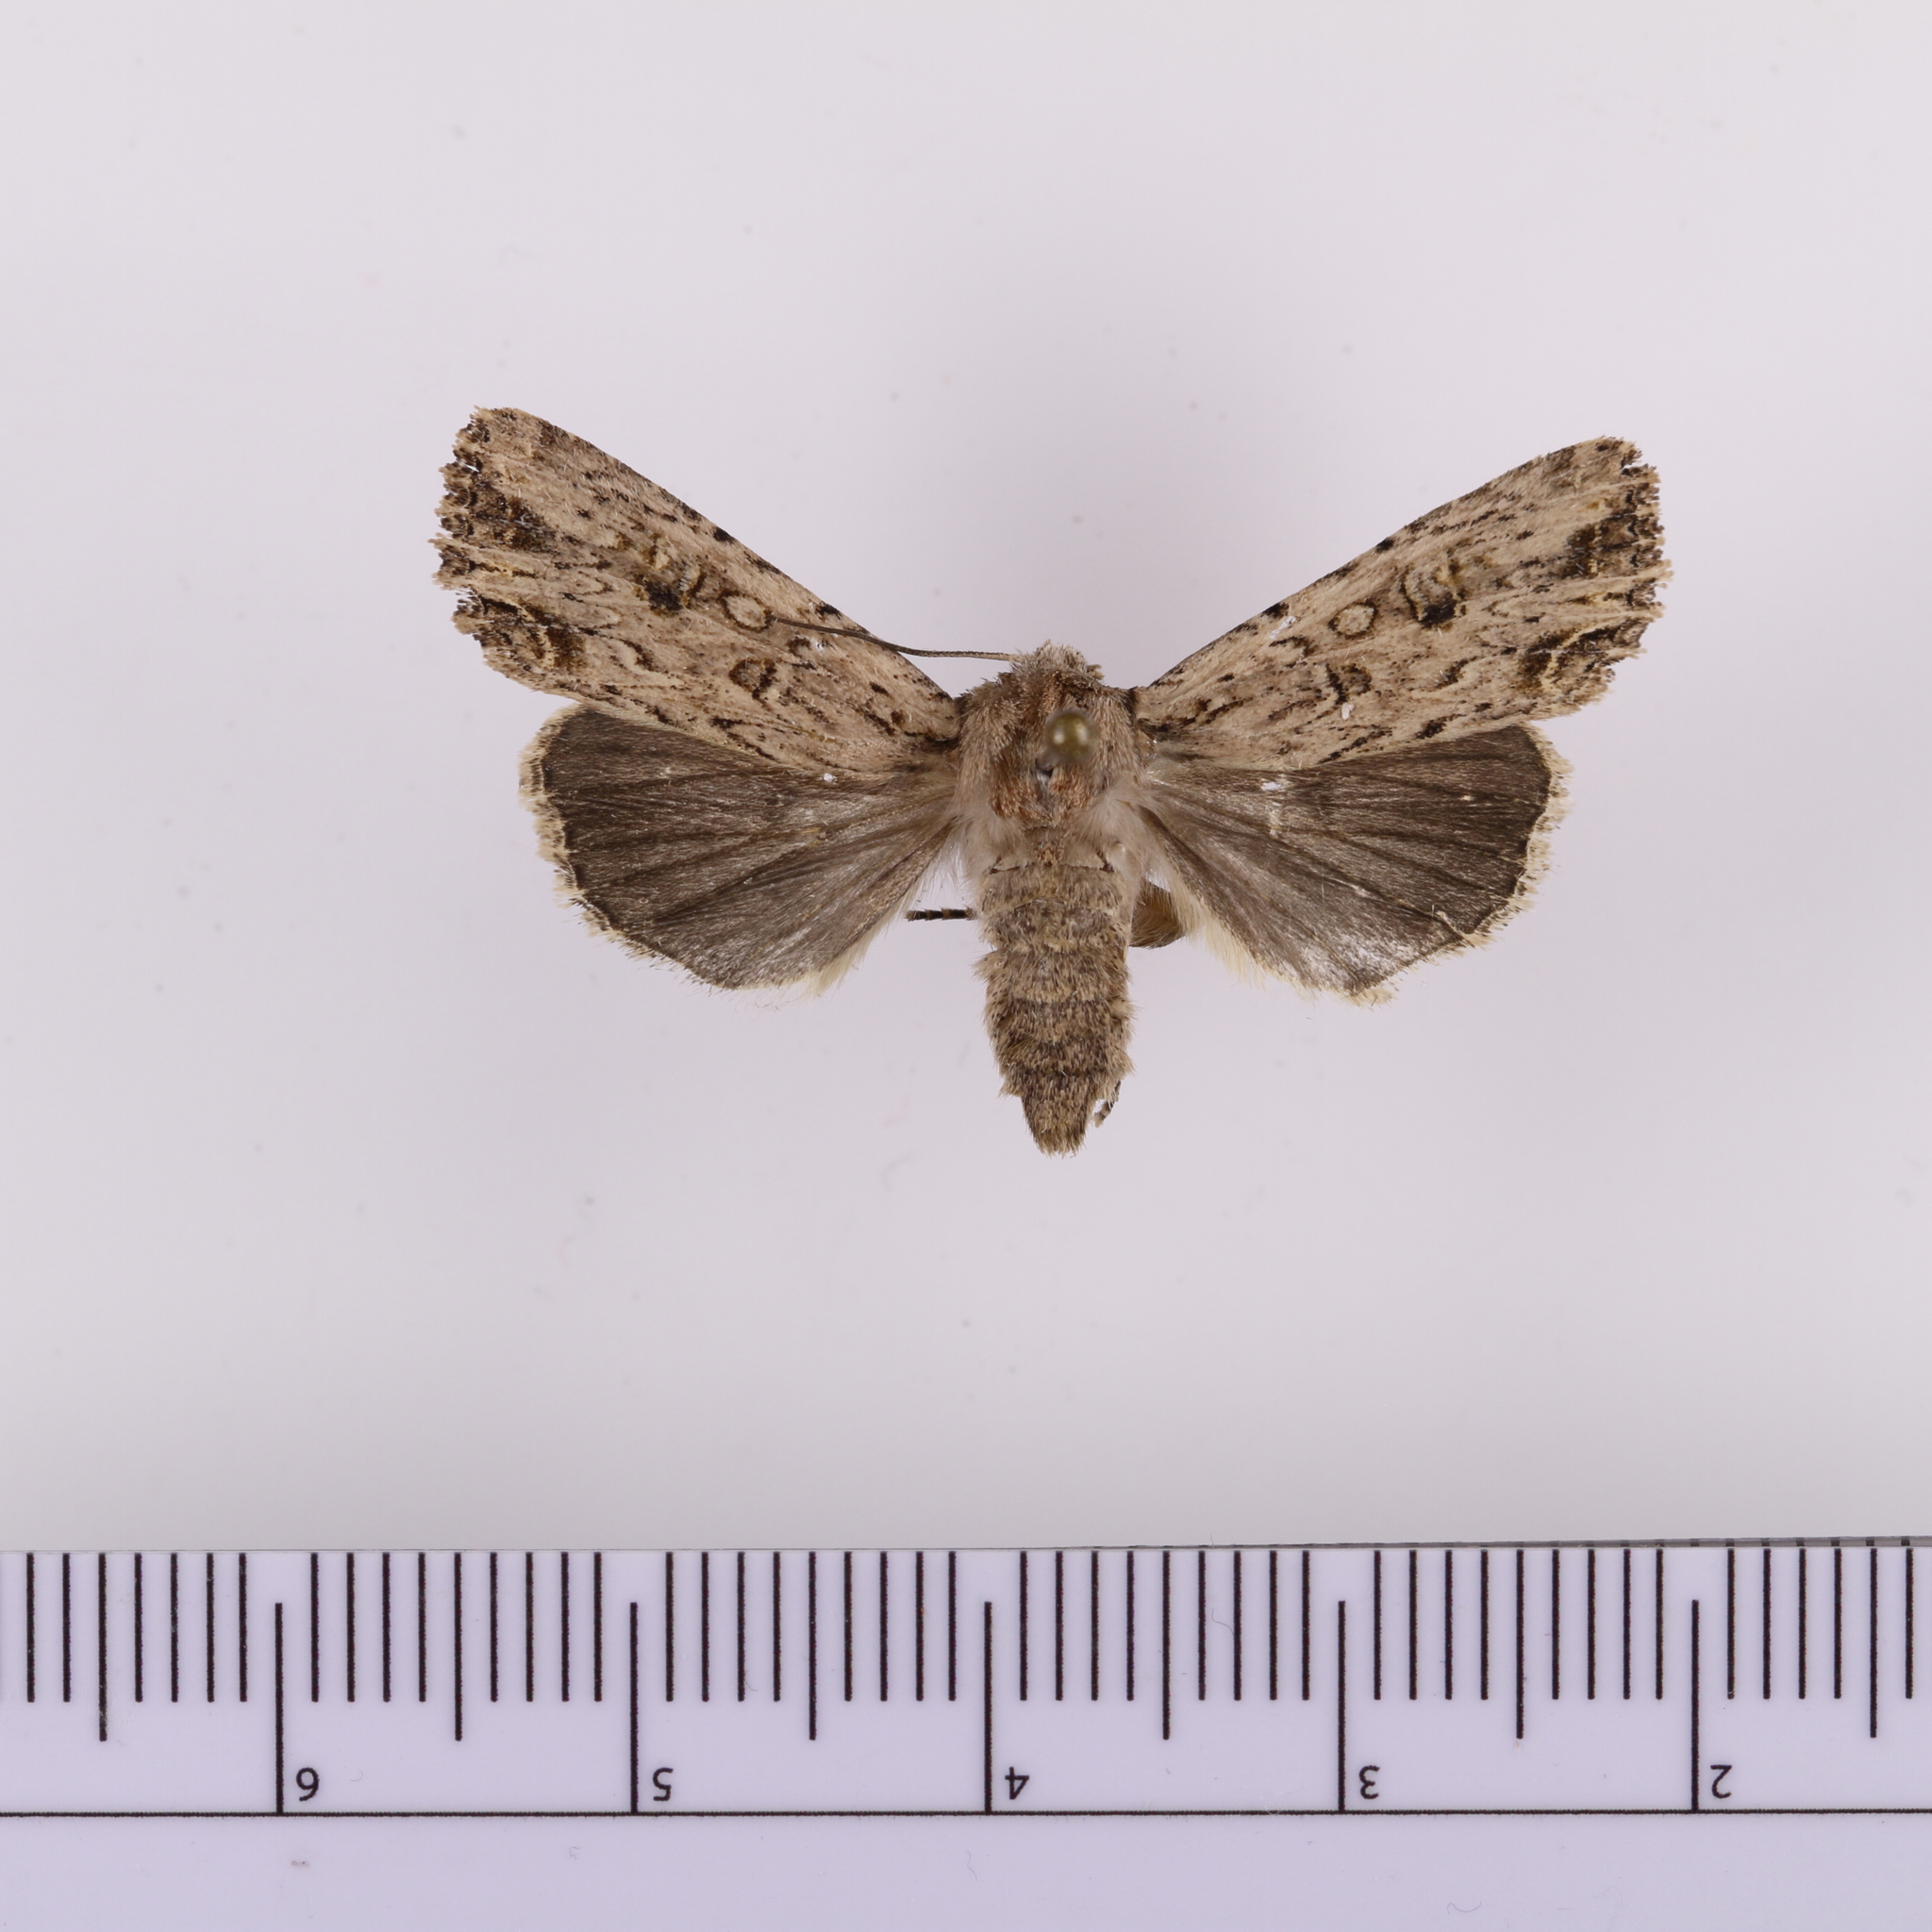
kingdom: Animalia
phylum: Arthropoda
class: Insecta
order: Lepidoptera
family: Noctuidae
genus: Ichneutica
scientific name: Ichneutica lignana
